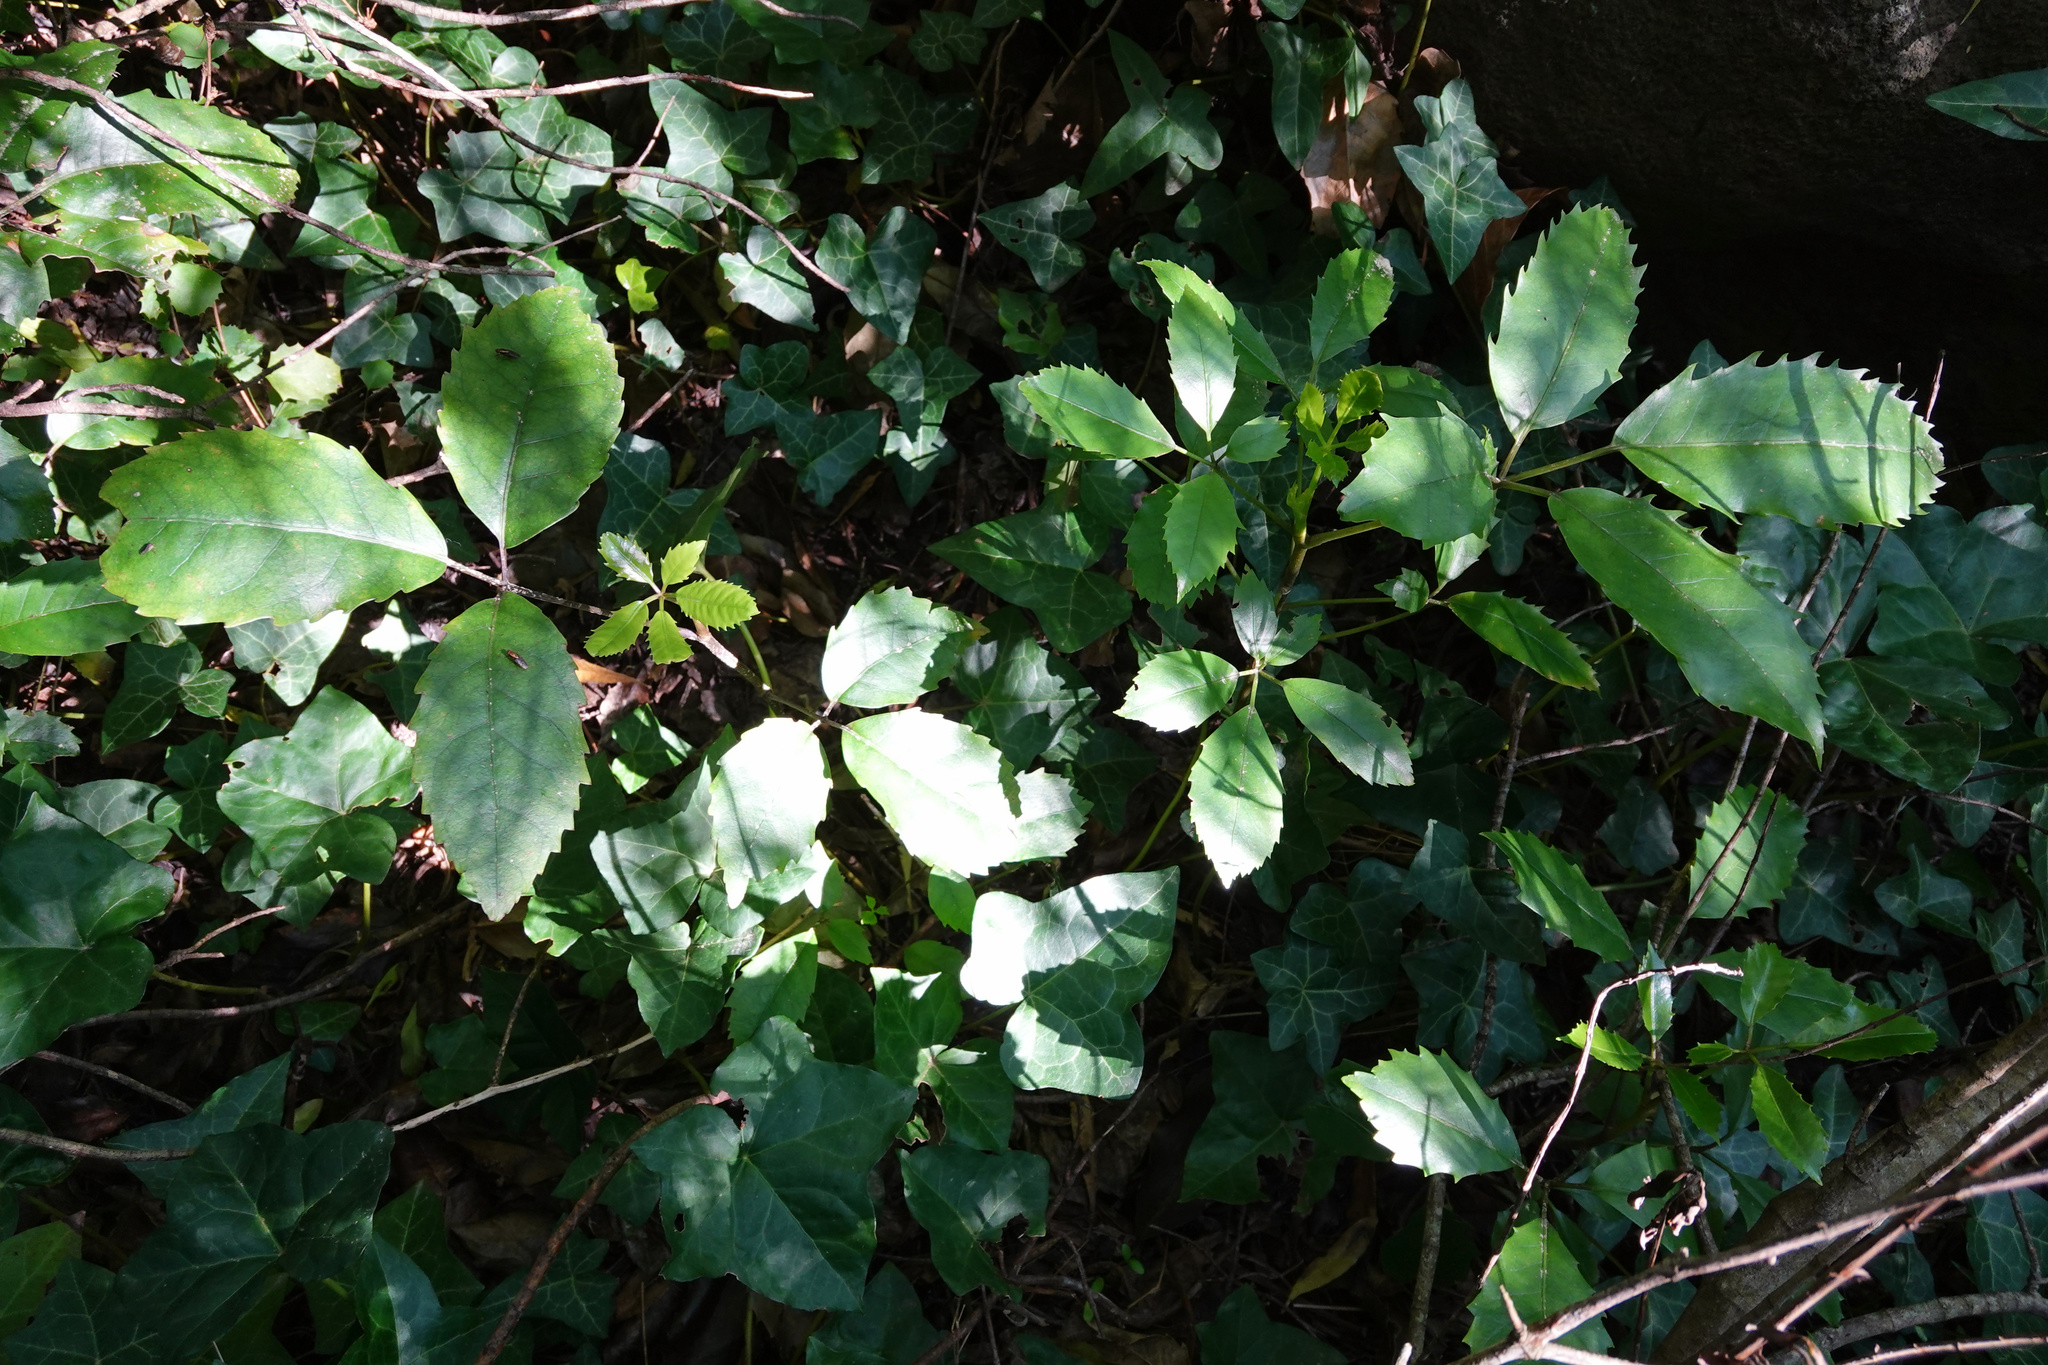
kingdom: Plantae
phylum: Tracheophyta
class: Magnoliopsida
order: Apiales
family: Araliaceae
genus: Neopanax
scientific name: Neopanax arboreus
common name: Five-fingers
